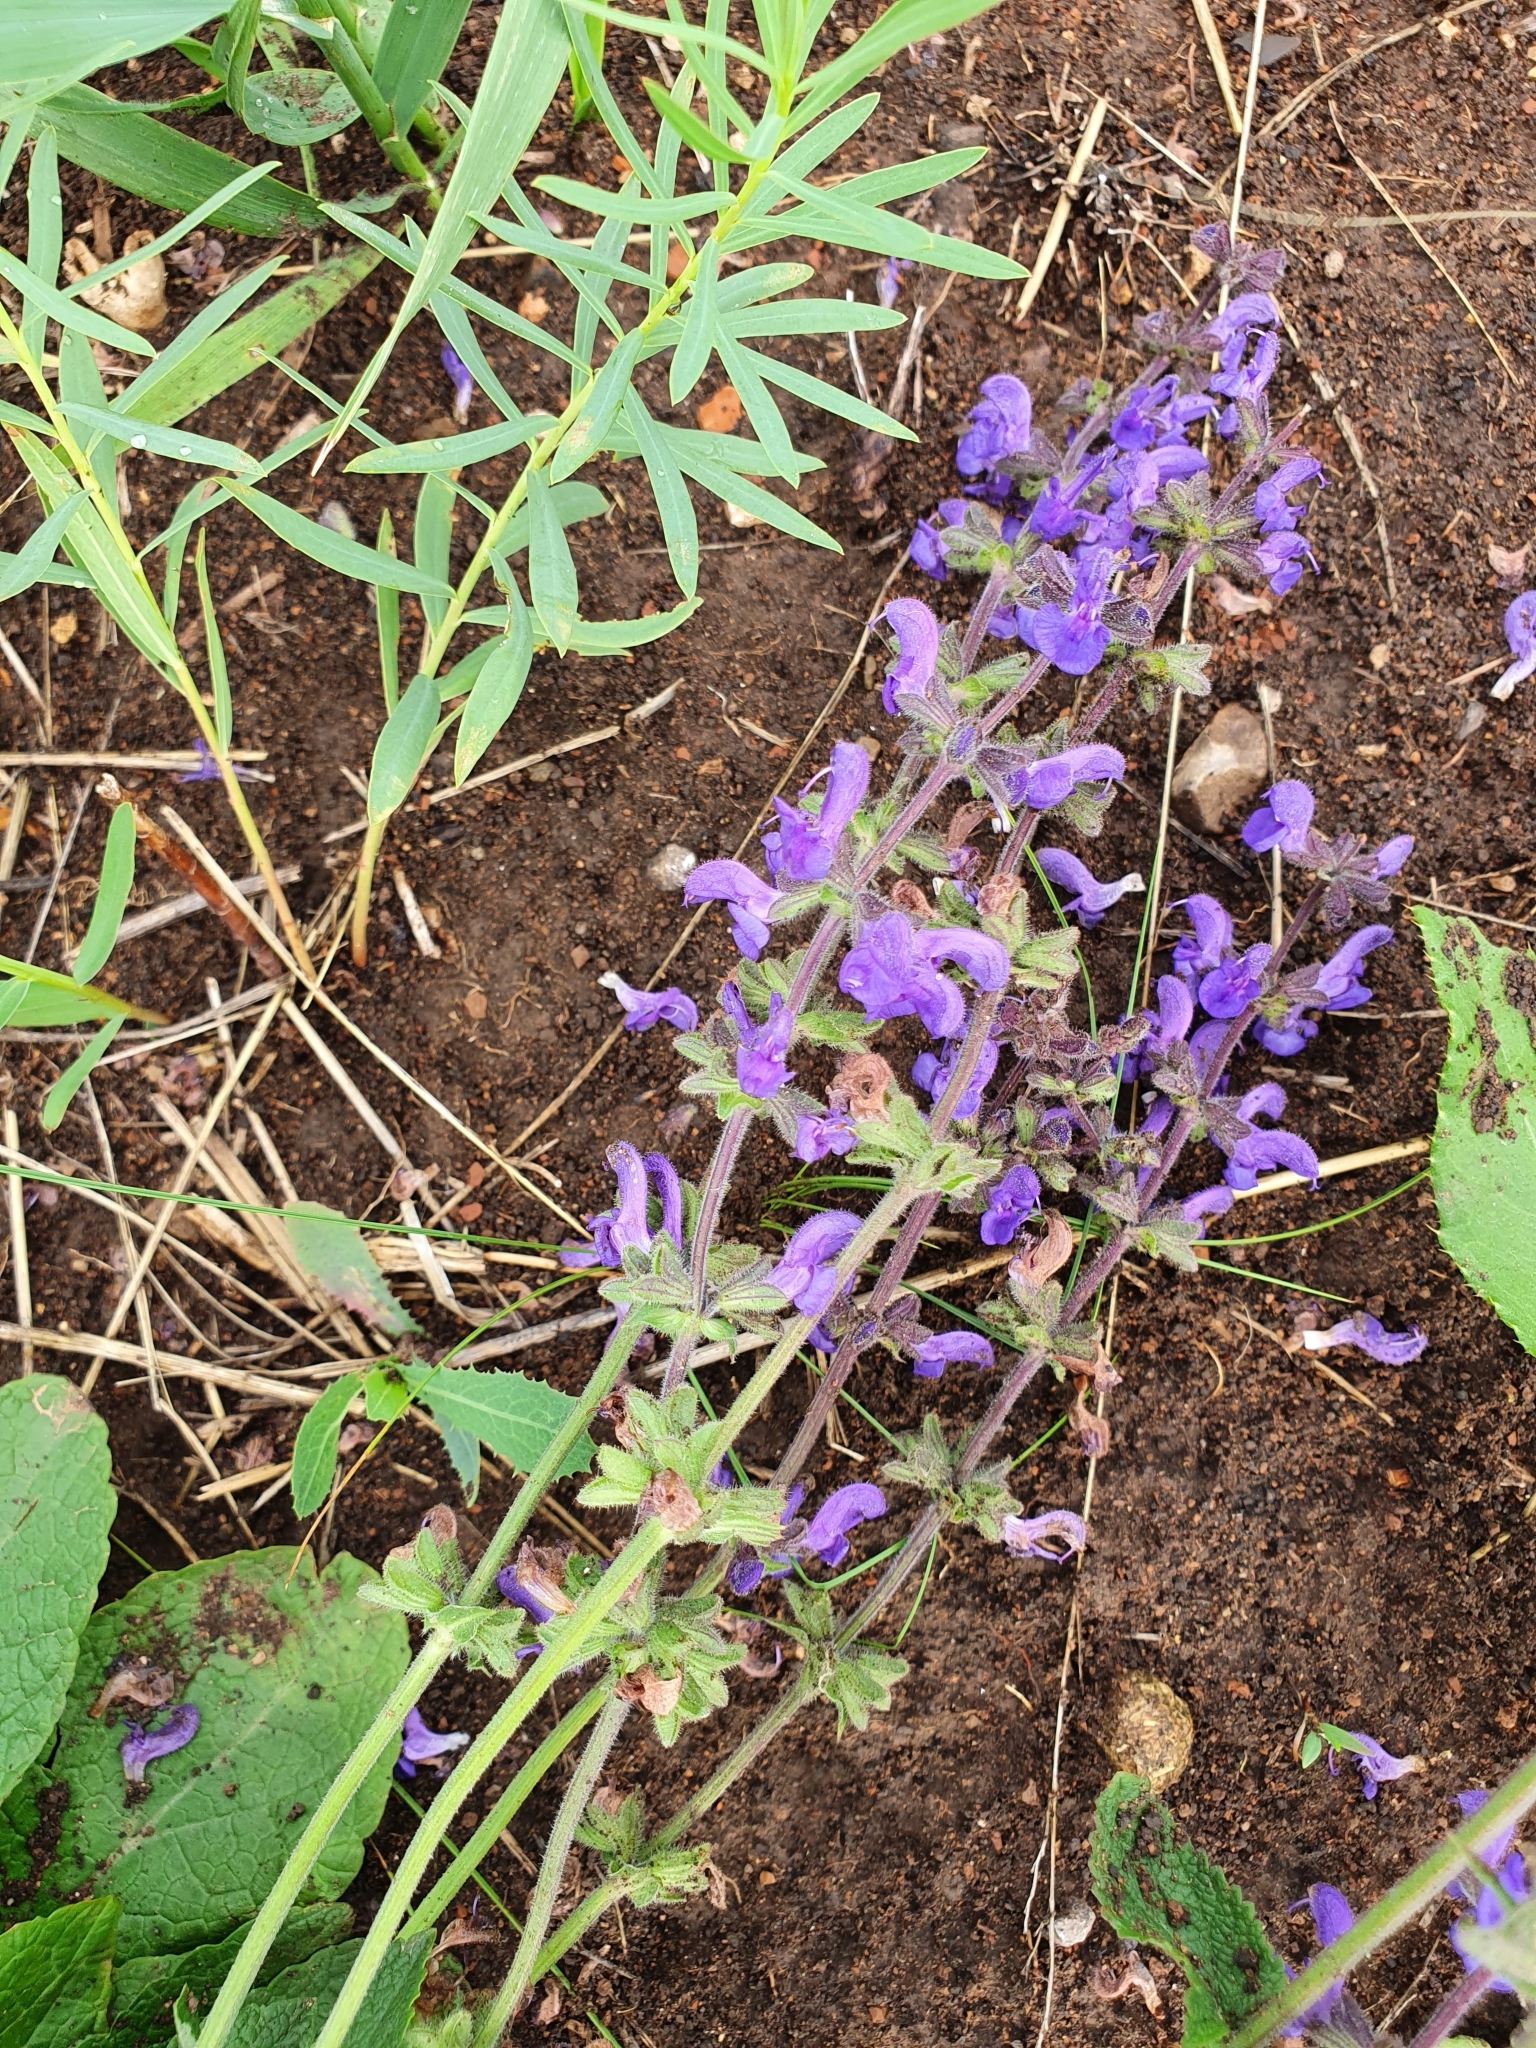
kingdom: Plantae
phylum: Tracheophyta
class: Magnoliopsida
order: Lamiales
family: Lamiaceae
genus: Salvia
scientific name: Salvia dumetorum
